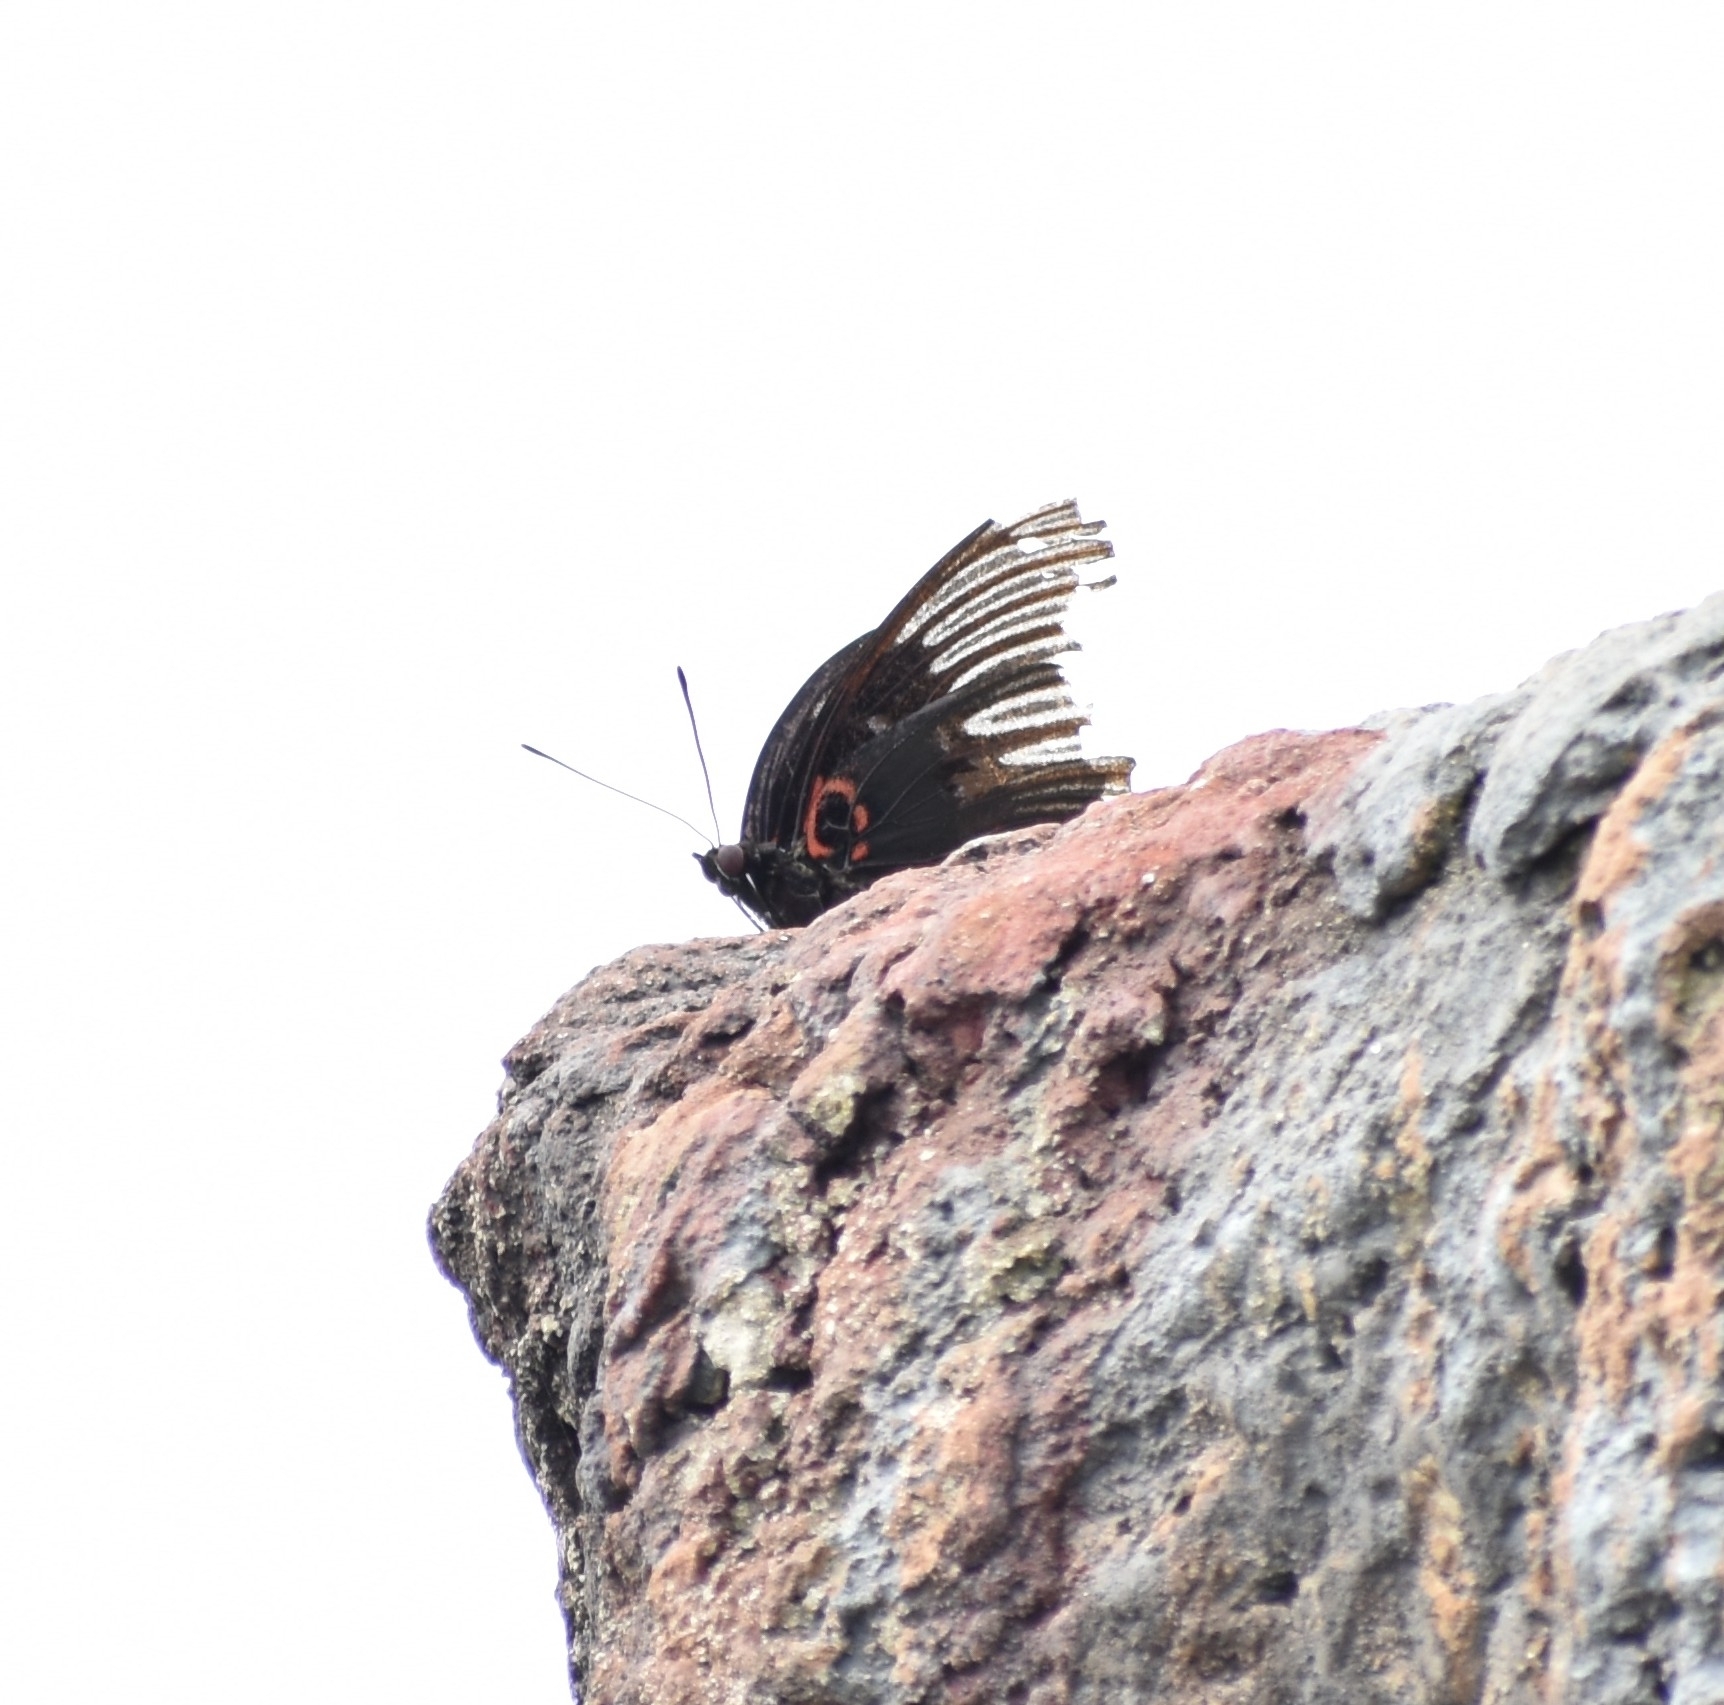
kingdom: Animalia
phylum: Arthropoda
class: Insecta
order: Lepidoptera
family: Nymphalidae
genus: Sasakia
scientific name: Sasakia funebris
